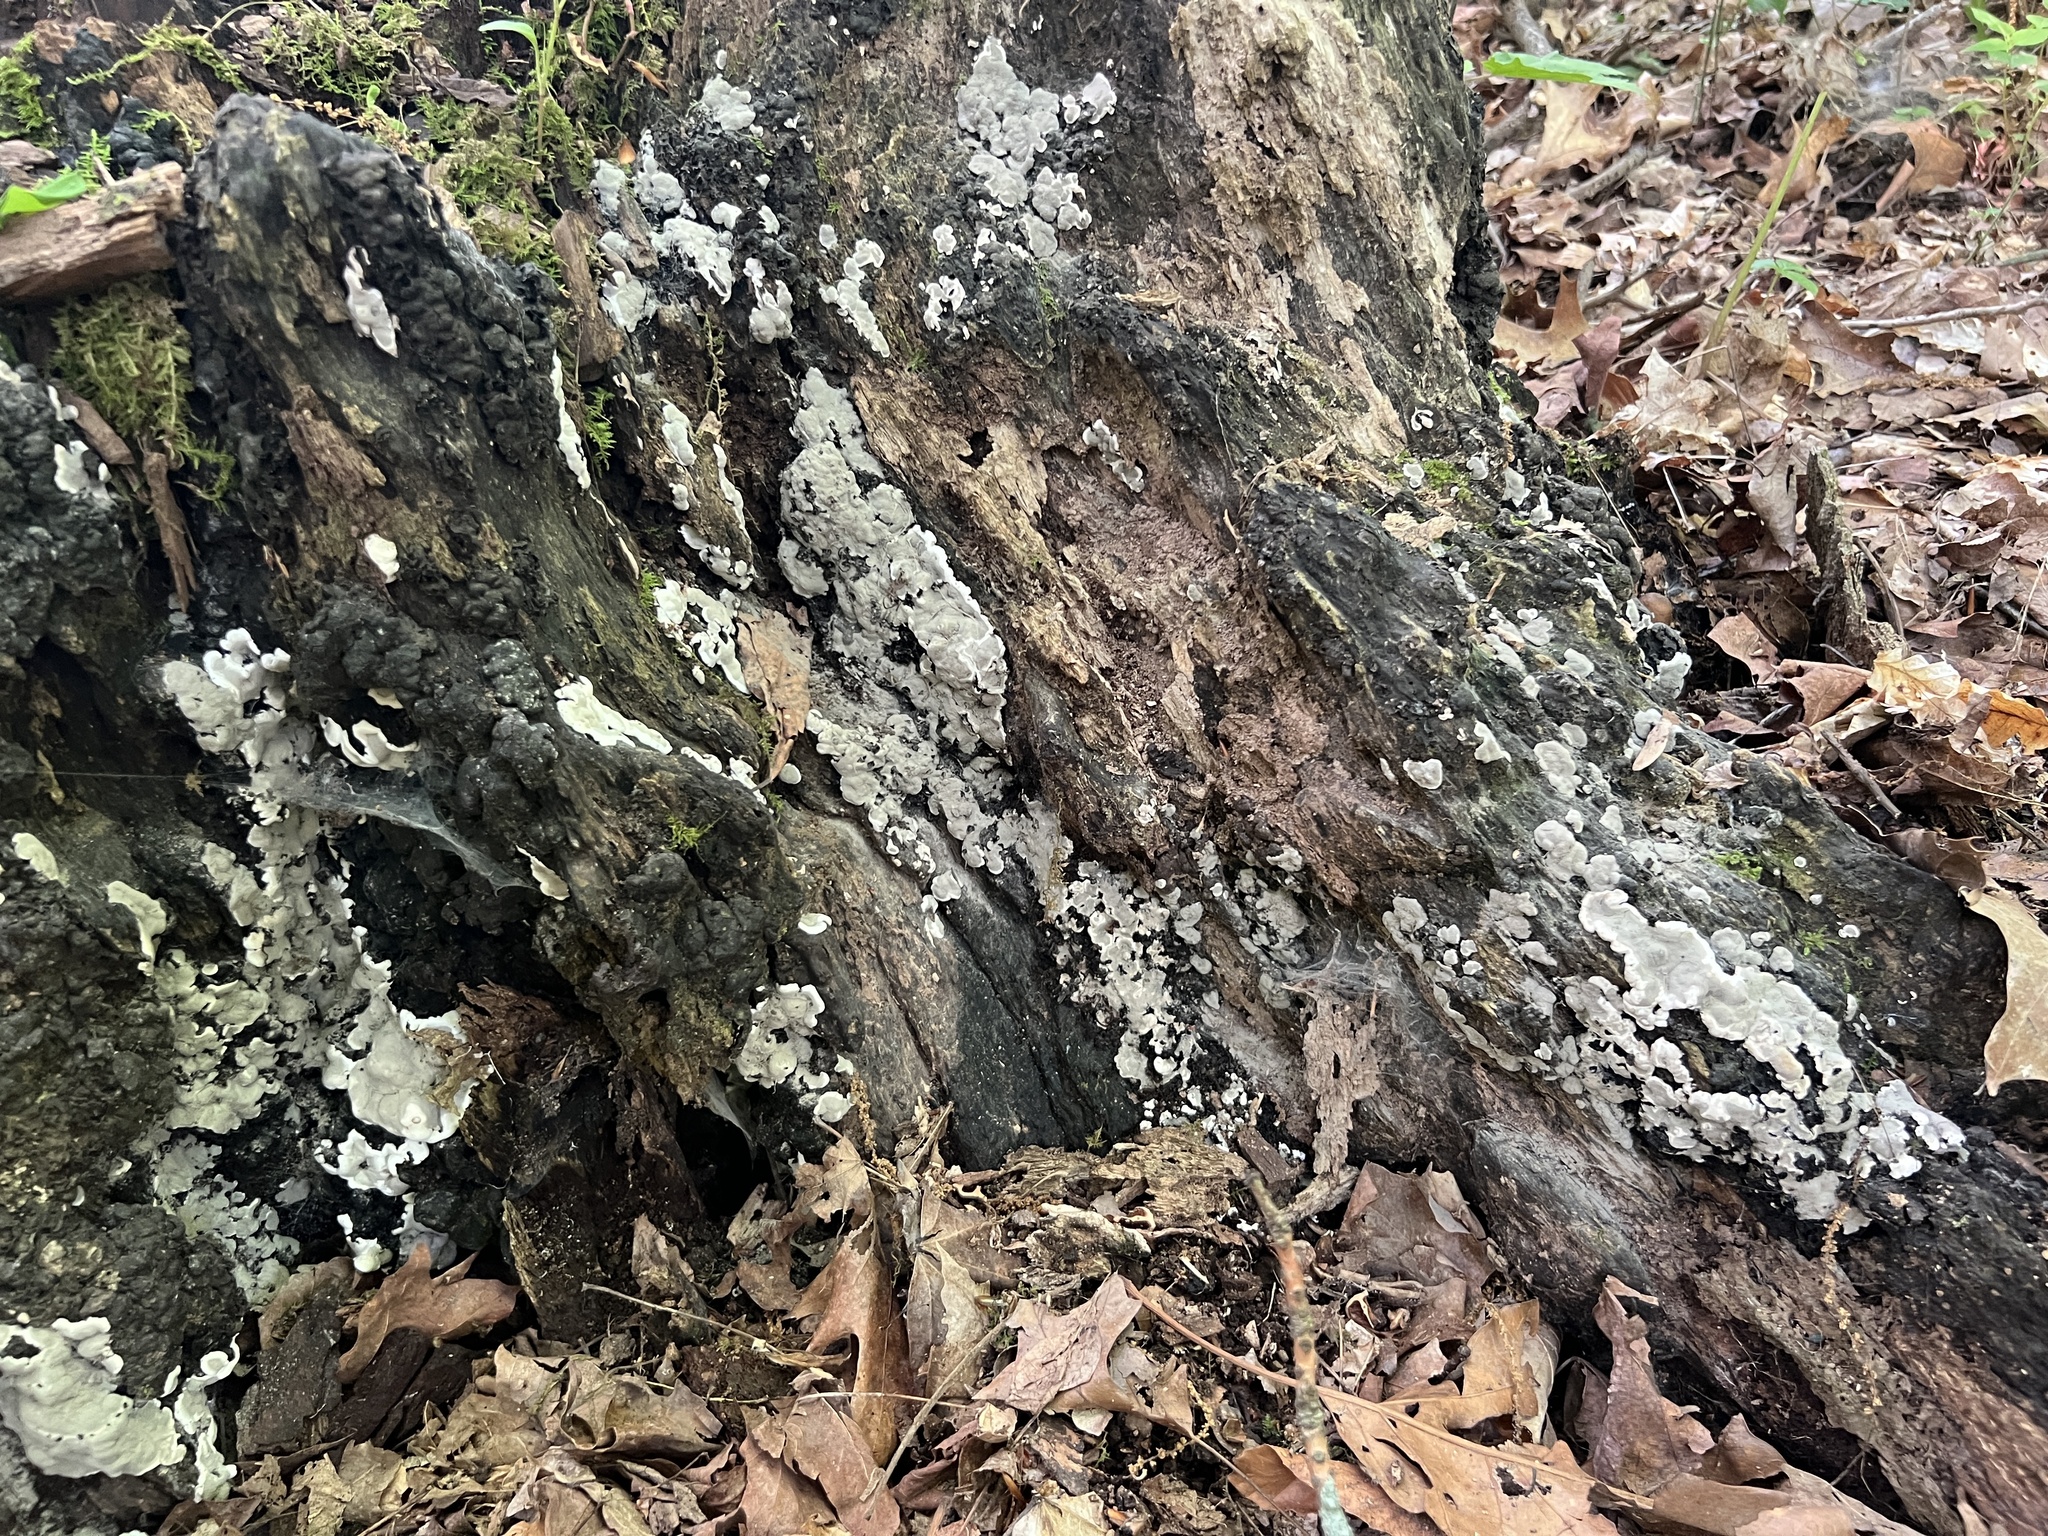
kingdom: Fungi
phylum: Ascomycota
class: Sordariomycetes
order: Xylariales
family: Xylariaceae
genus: Kretzschmaria
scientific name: Kretzschmaria hedjaroudei
